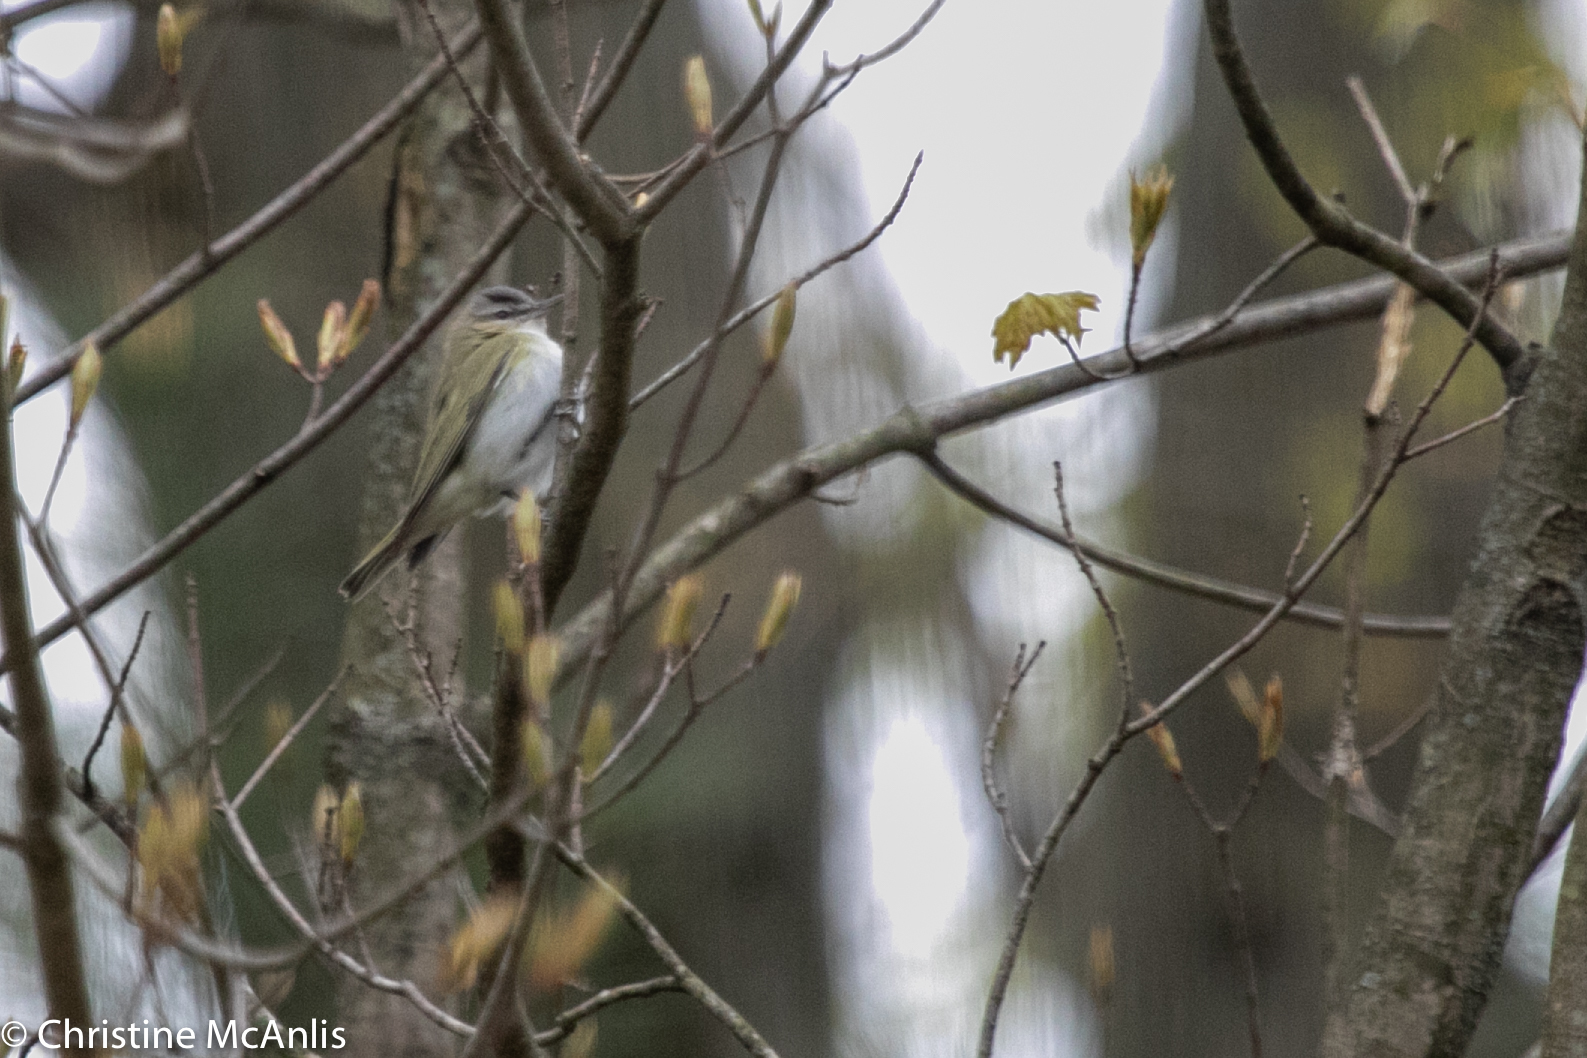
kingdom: Animalia
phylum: Chordata
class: Aves
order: Passeriformes
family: Vireonidae
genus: Vireo
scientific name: Vireo olivaceus
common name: Red-eyed vireo
